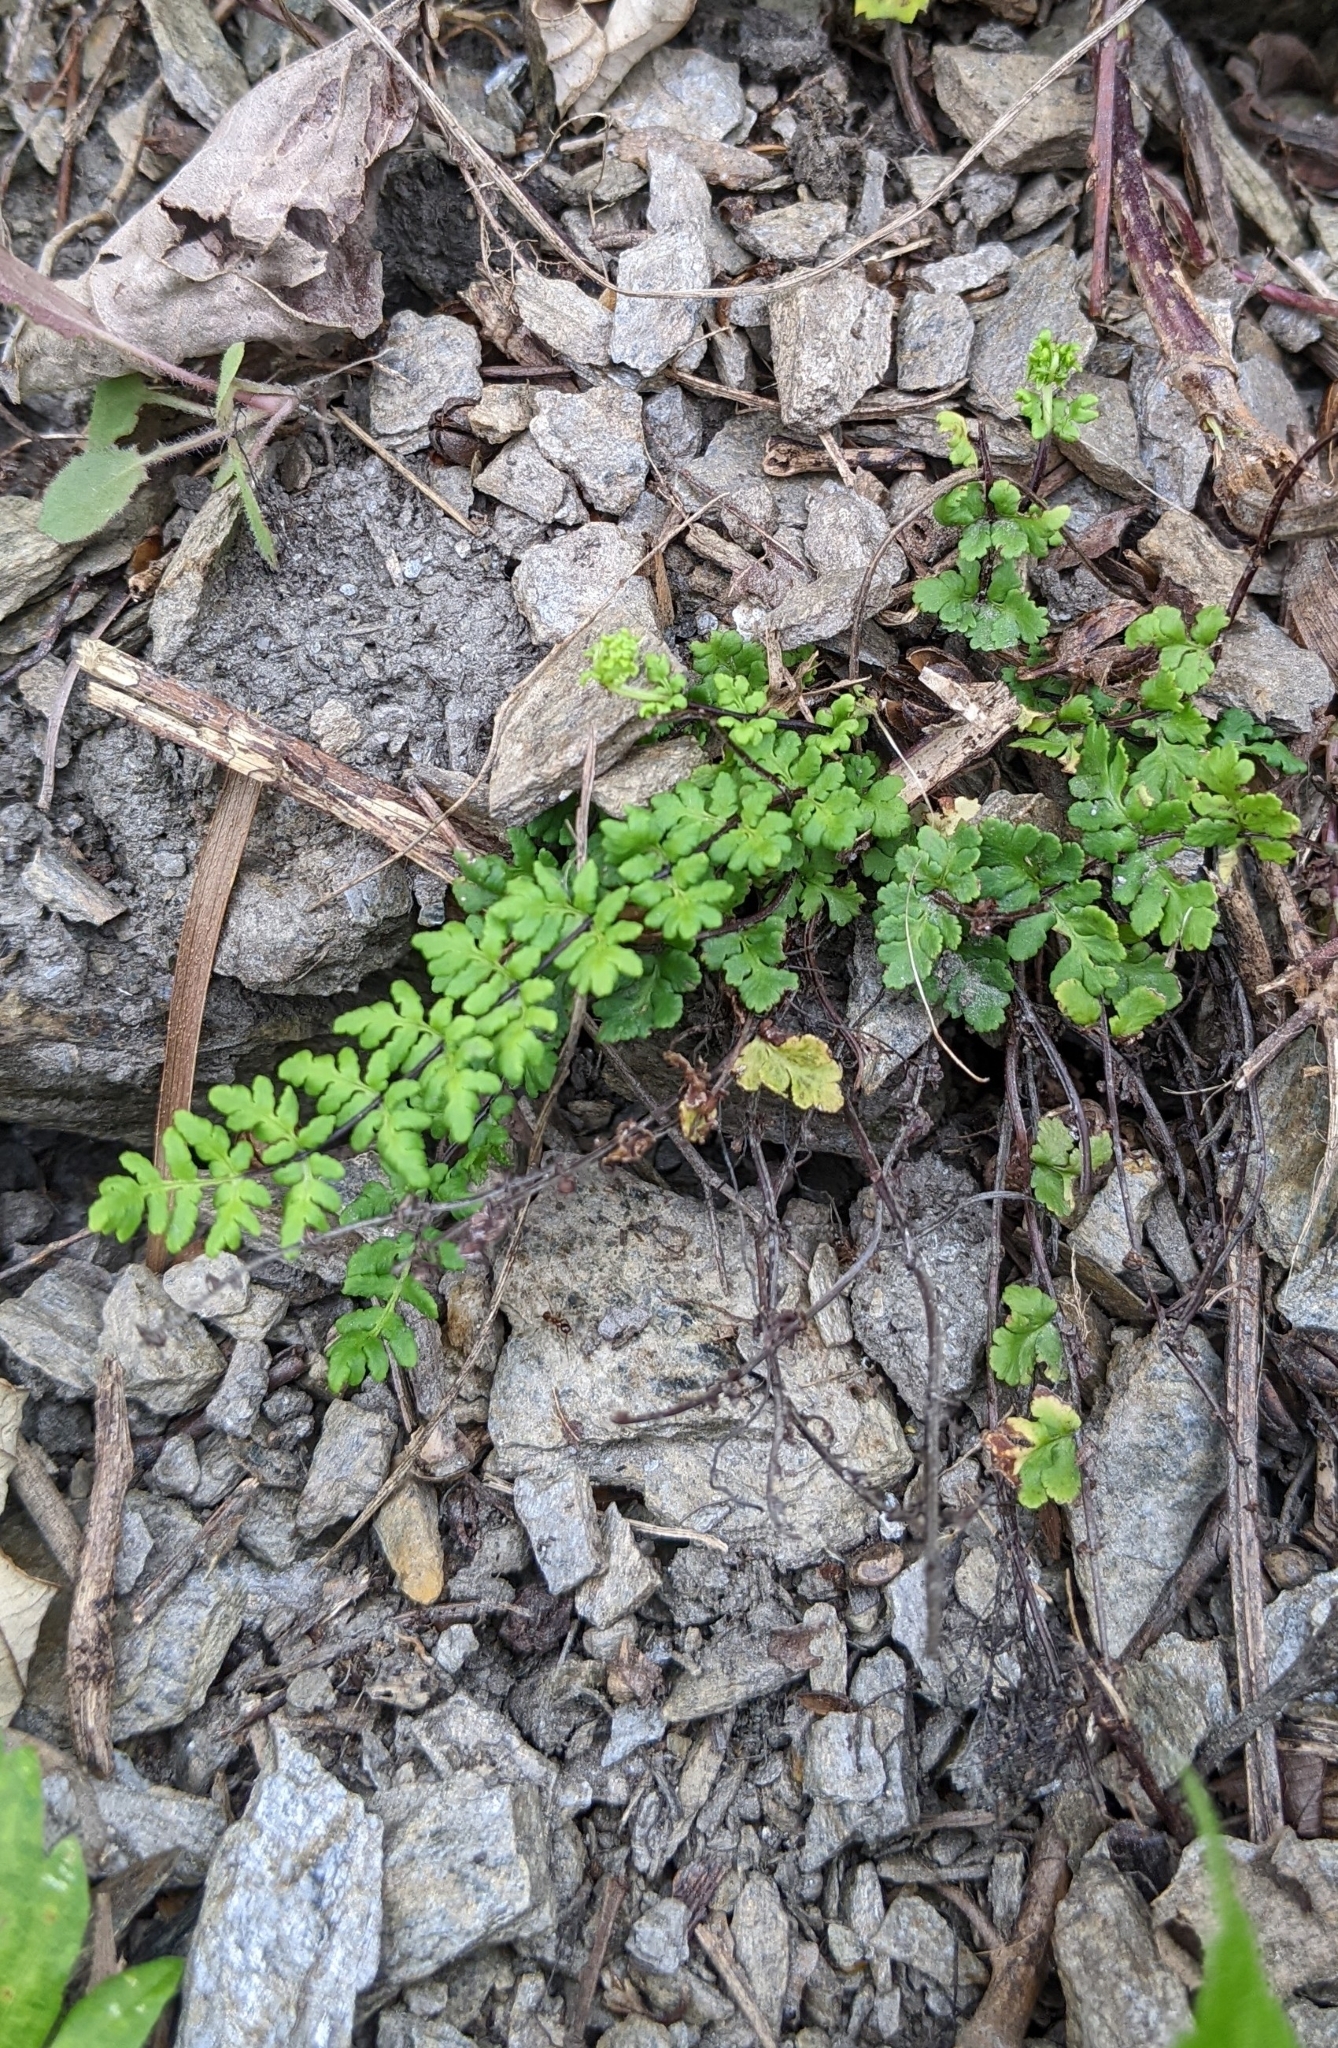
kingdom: Plantae
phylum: Tracheophyta
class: Polypodiopsida
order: Polypodiales
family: Pteridaceae
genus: Oeosporangium
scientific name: Oeosporangium chusanum
